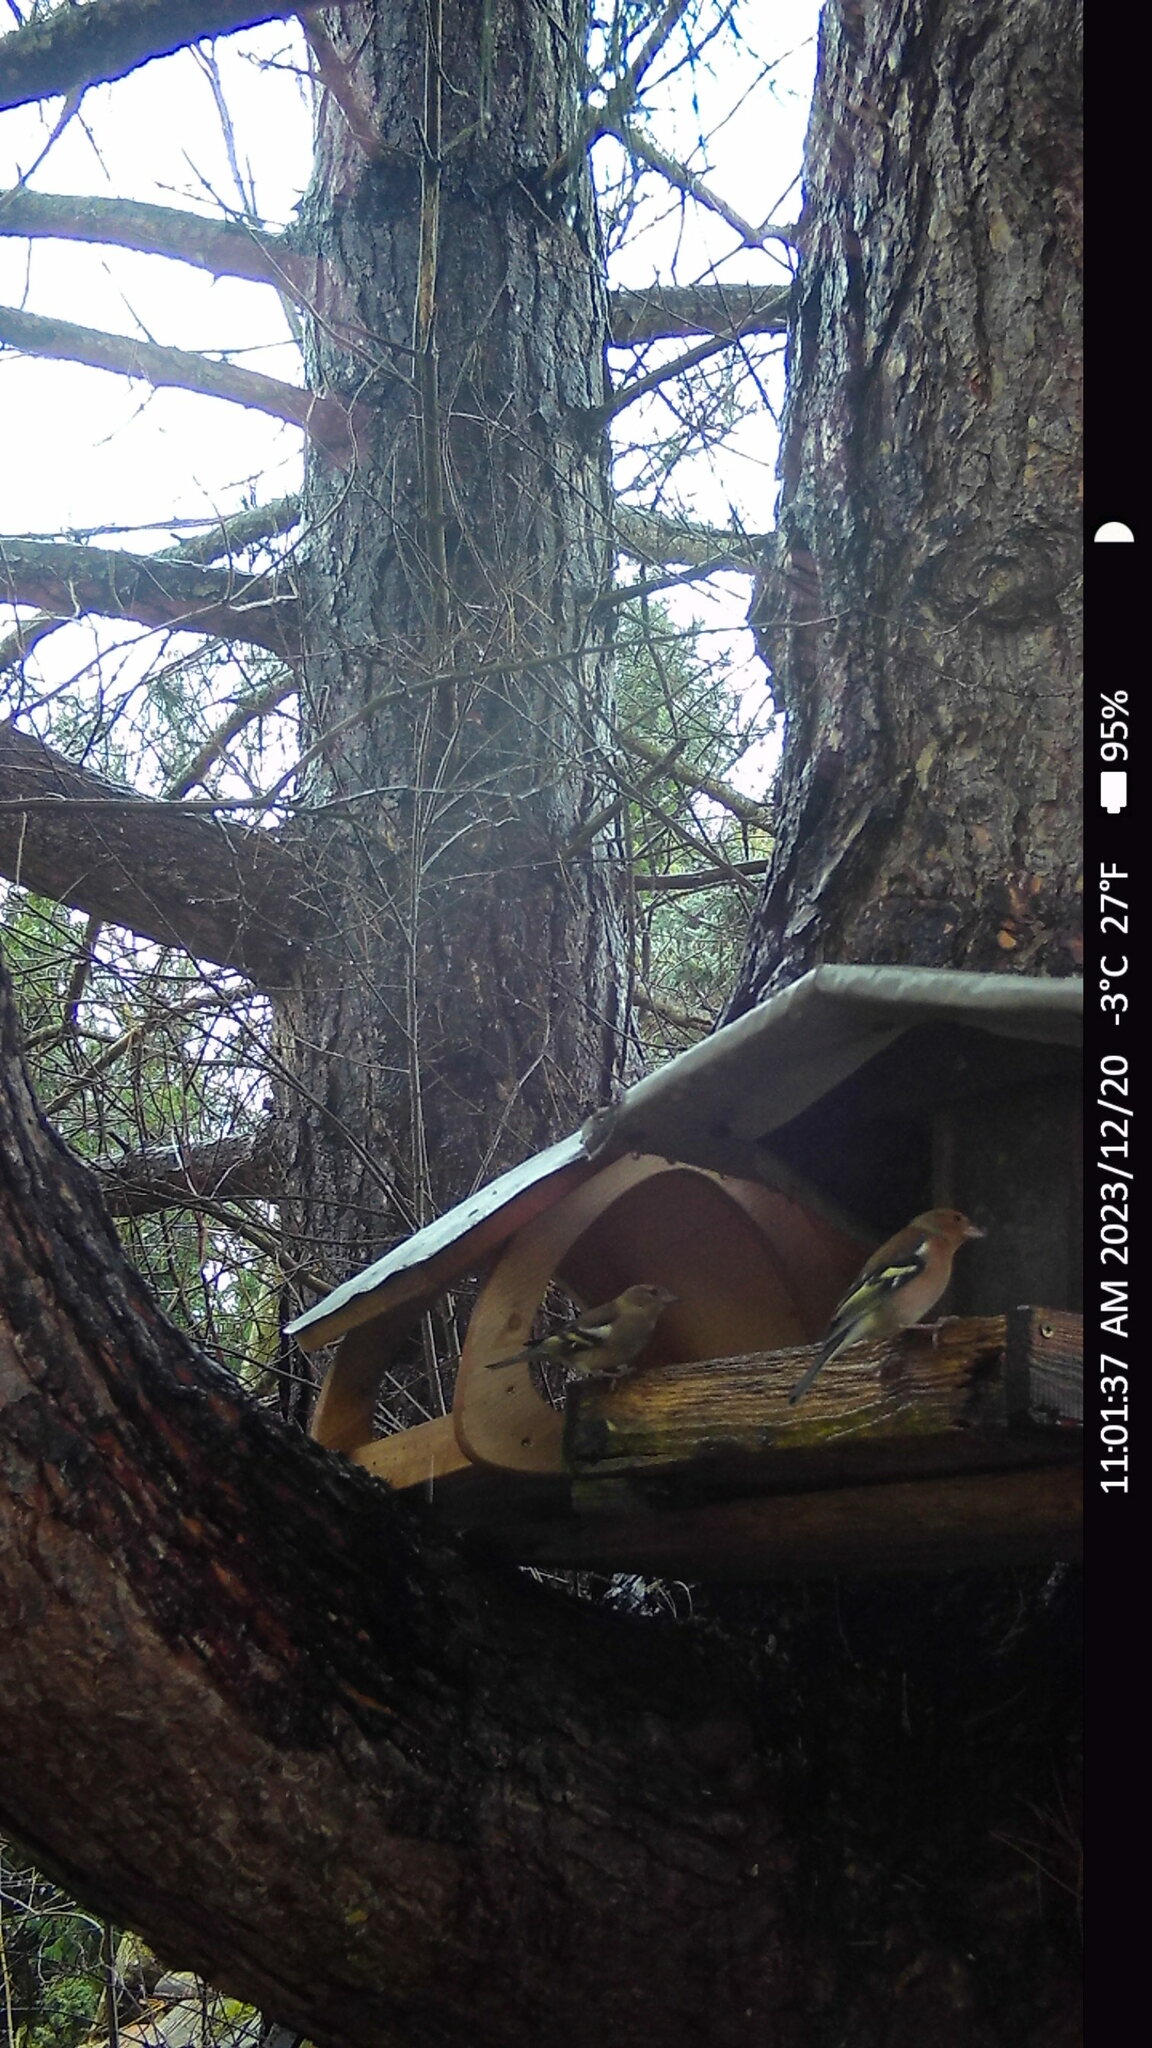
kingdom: Animalia
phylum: Chordata
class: Aves
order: Passeriformes
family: Fringillidae
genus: Fringilla
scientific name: Fringilla coelebs
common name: Common chaffinch
